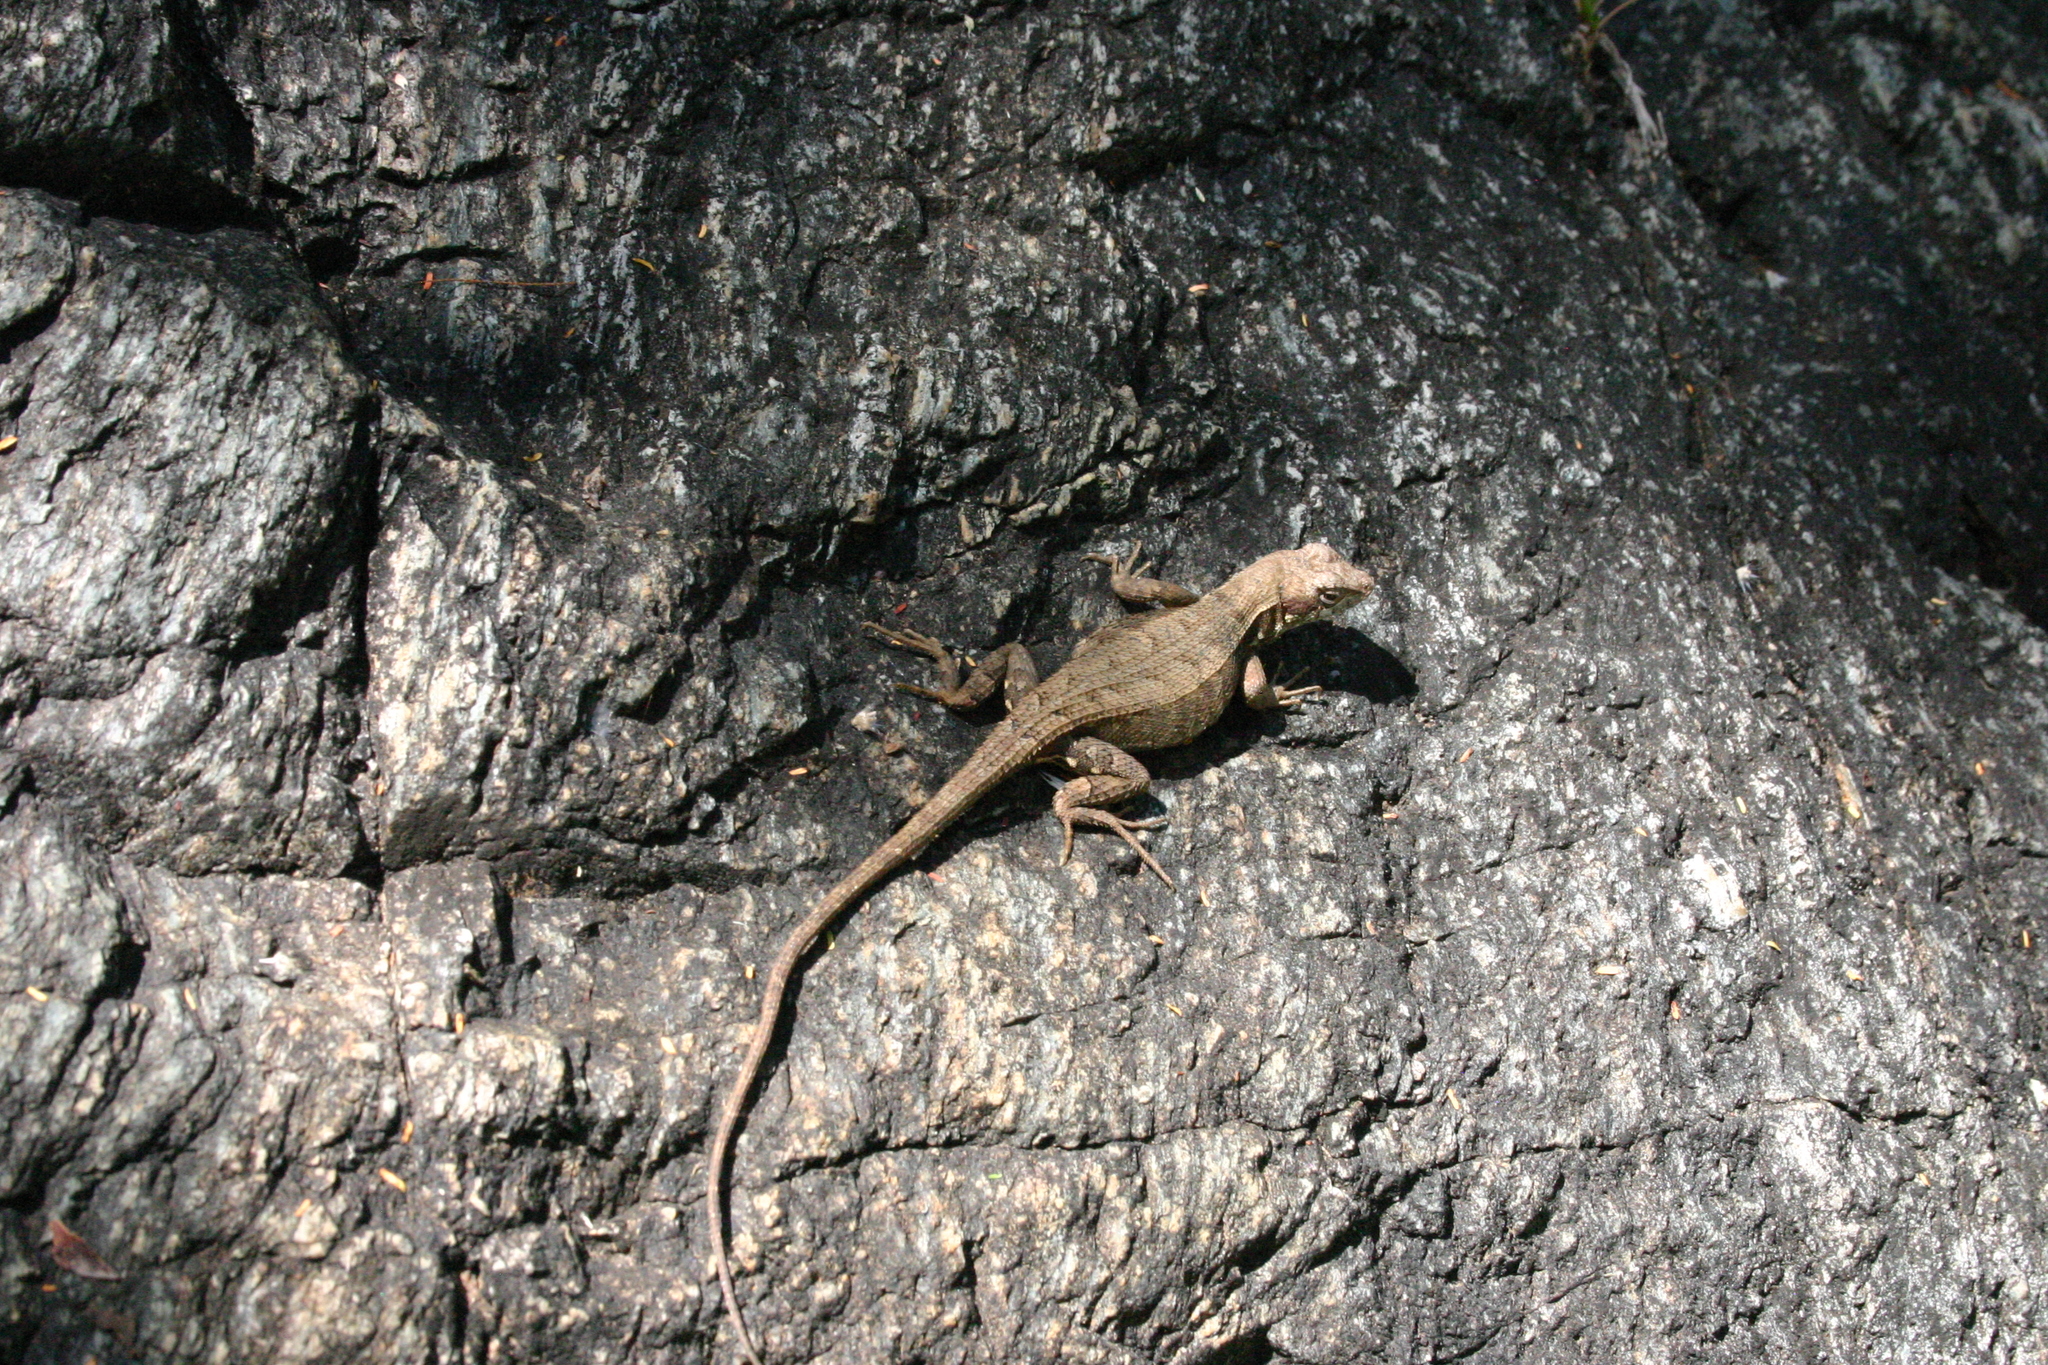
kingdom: Animalia
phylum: Chordata
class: Squamata
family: Phrynosomatidae
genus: Sceloporus
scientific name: Sceloporus cupreus
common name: Upland long-tailed spiny lizard
